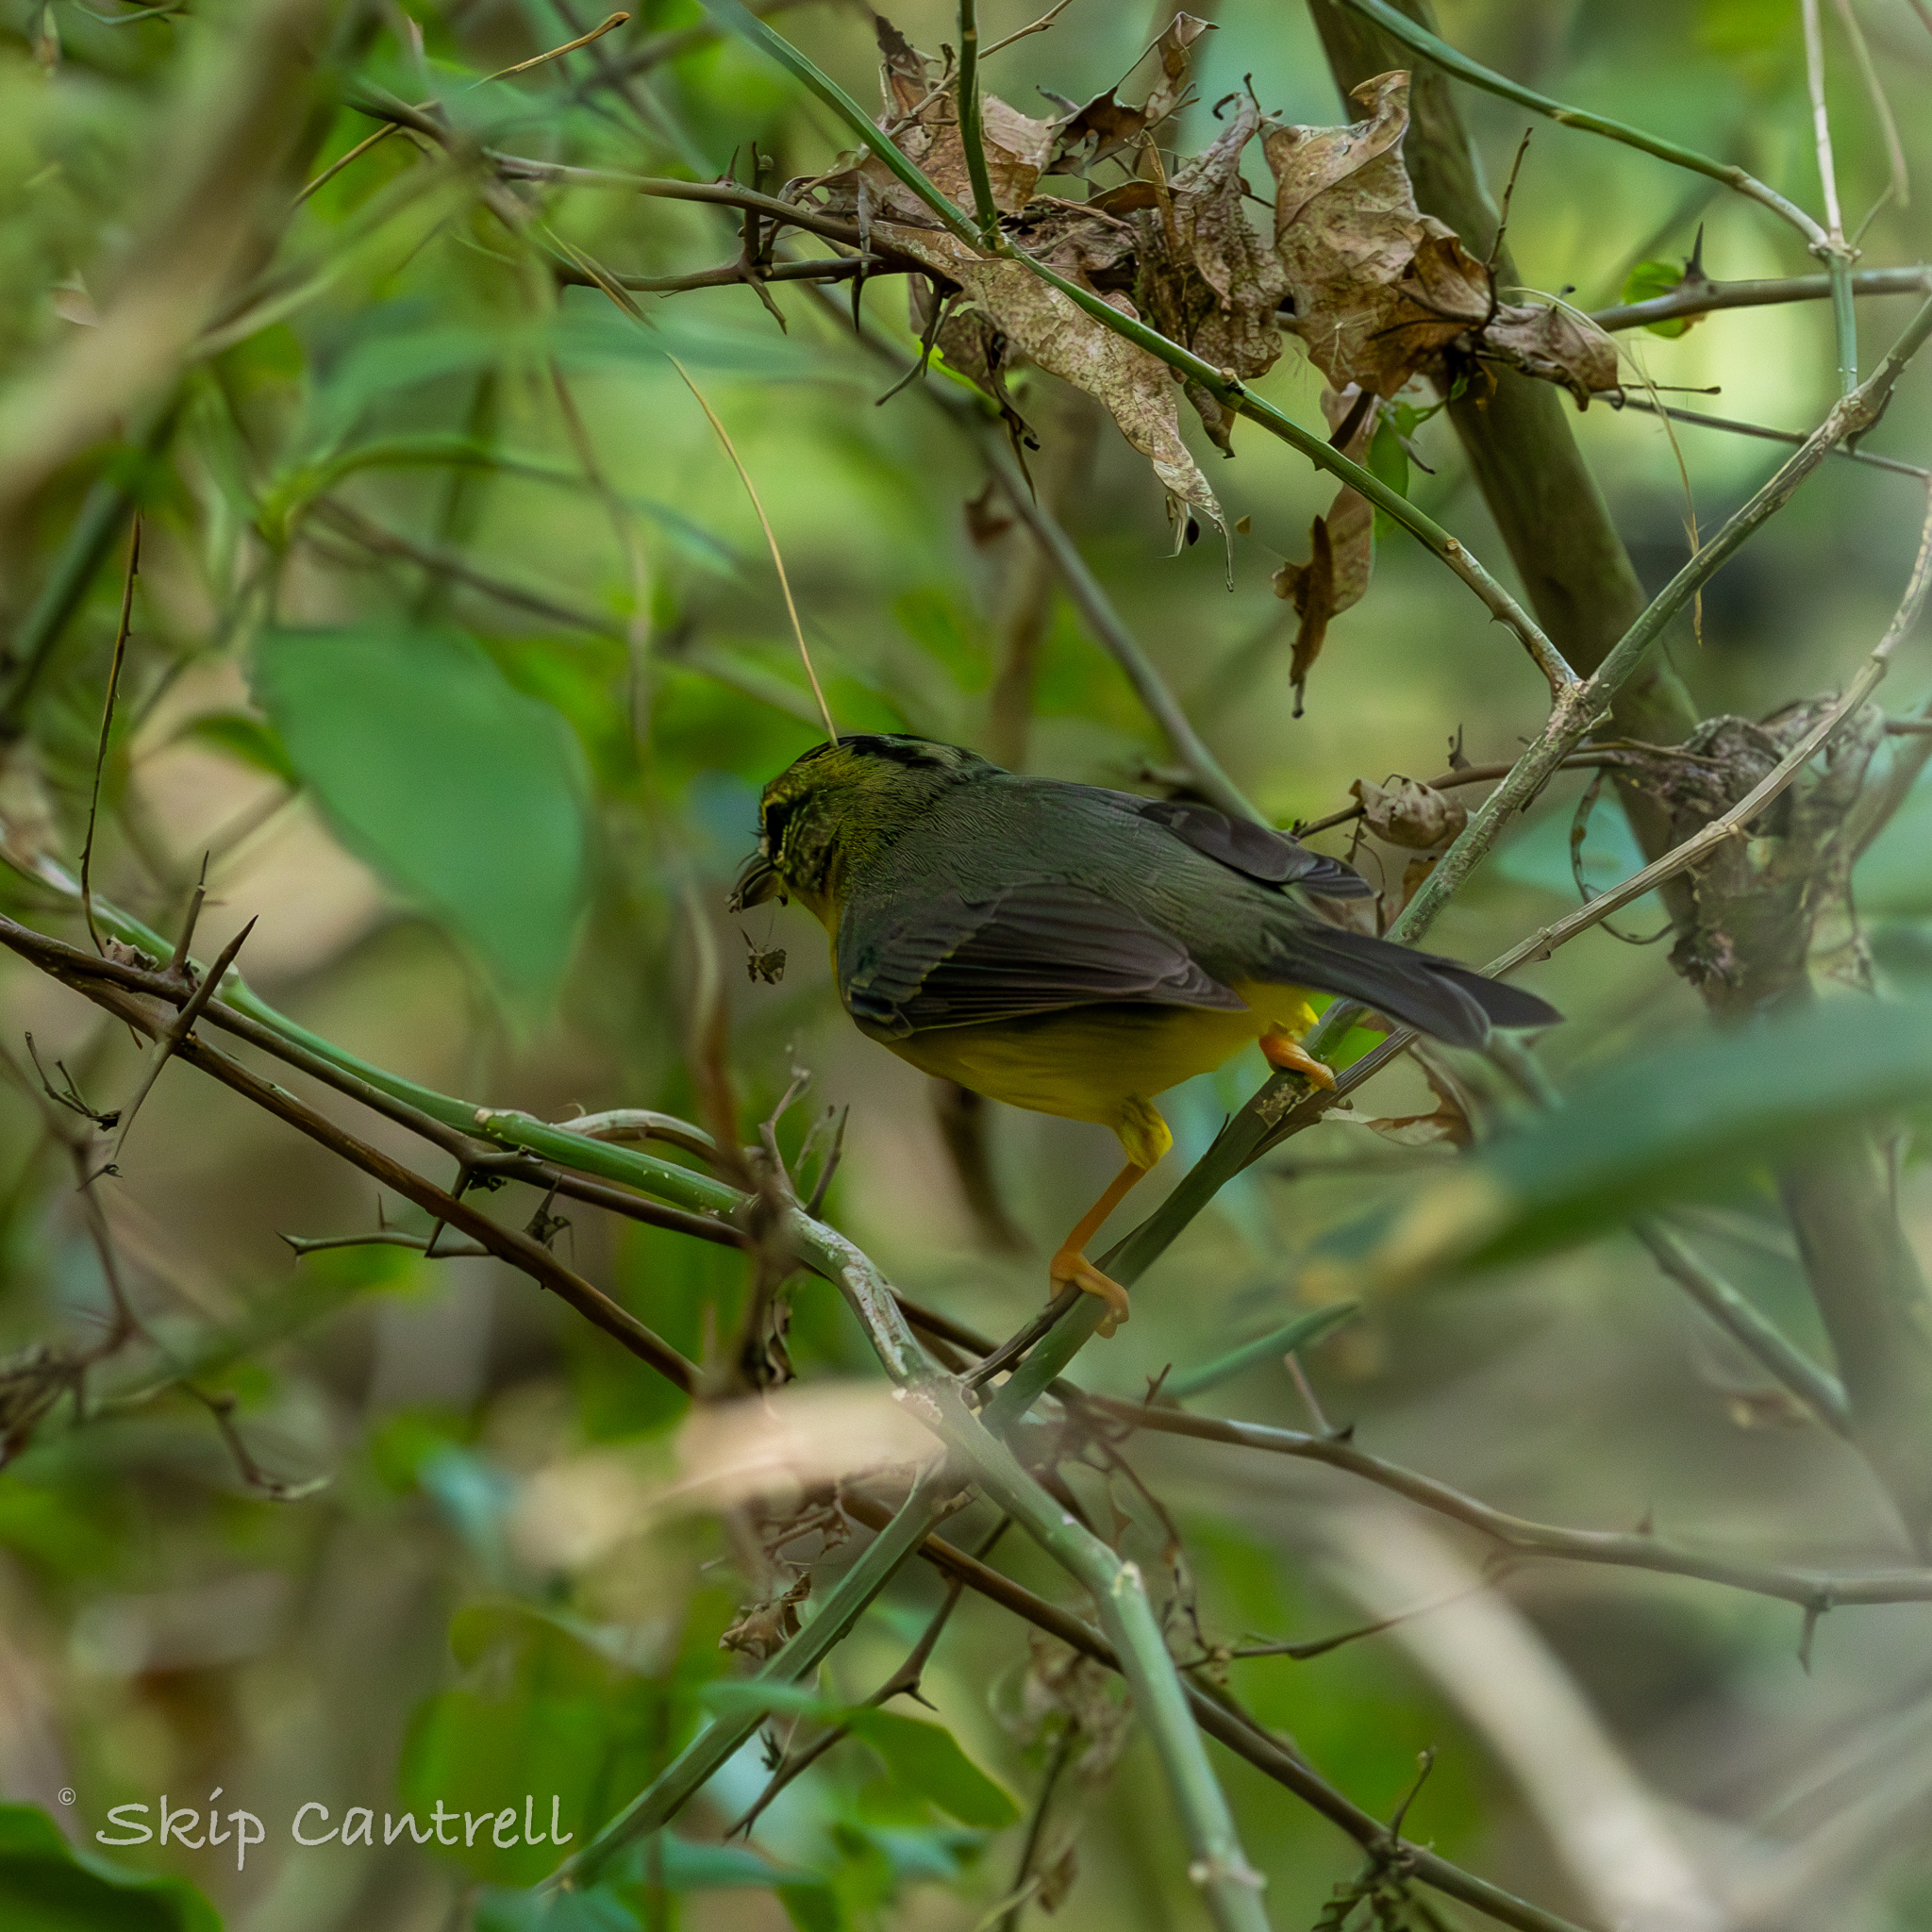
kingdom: Animalia
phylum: Chordata
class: Aves
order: Passeriformes
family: Parulidae
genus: Basileuterus
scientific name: Basileuterus culicivorus
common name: Golden-crowned warbler
